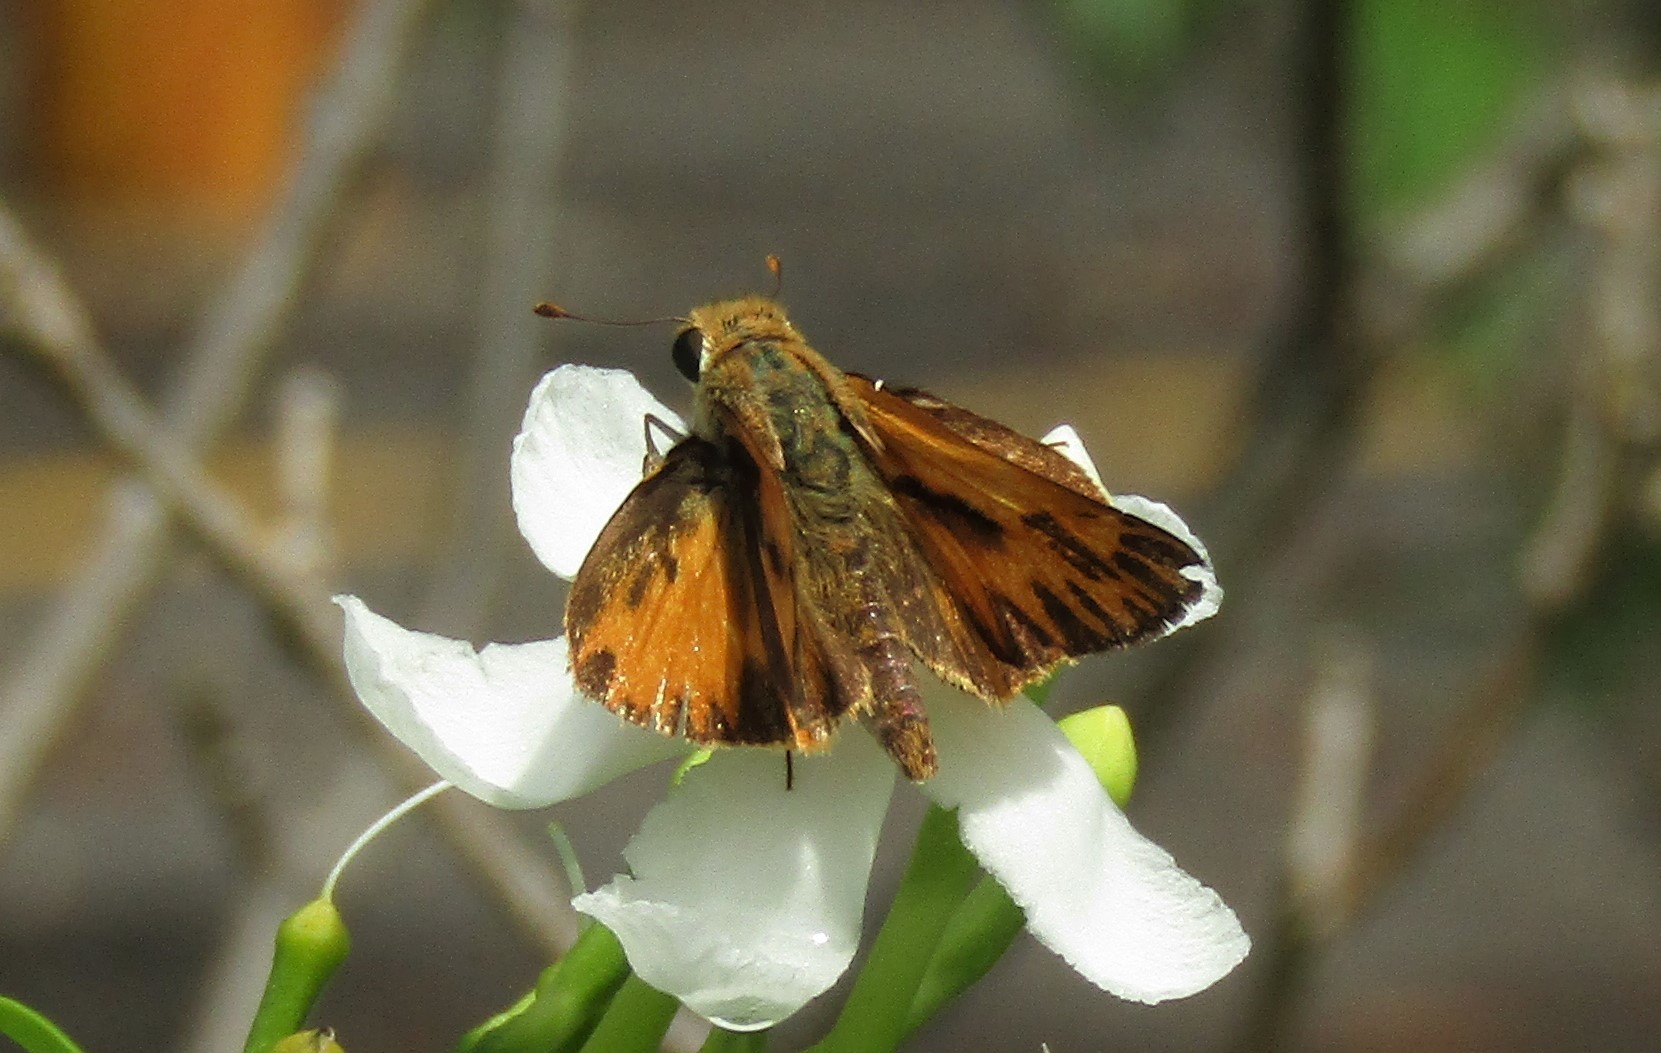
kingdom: Animalia
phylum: Arthropoda
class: Insecta
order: Lepidoptera
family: Hesperiidae
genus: Polites
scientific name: Polites vibex
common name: Whirlabout
